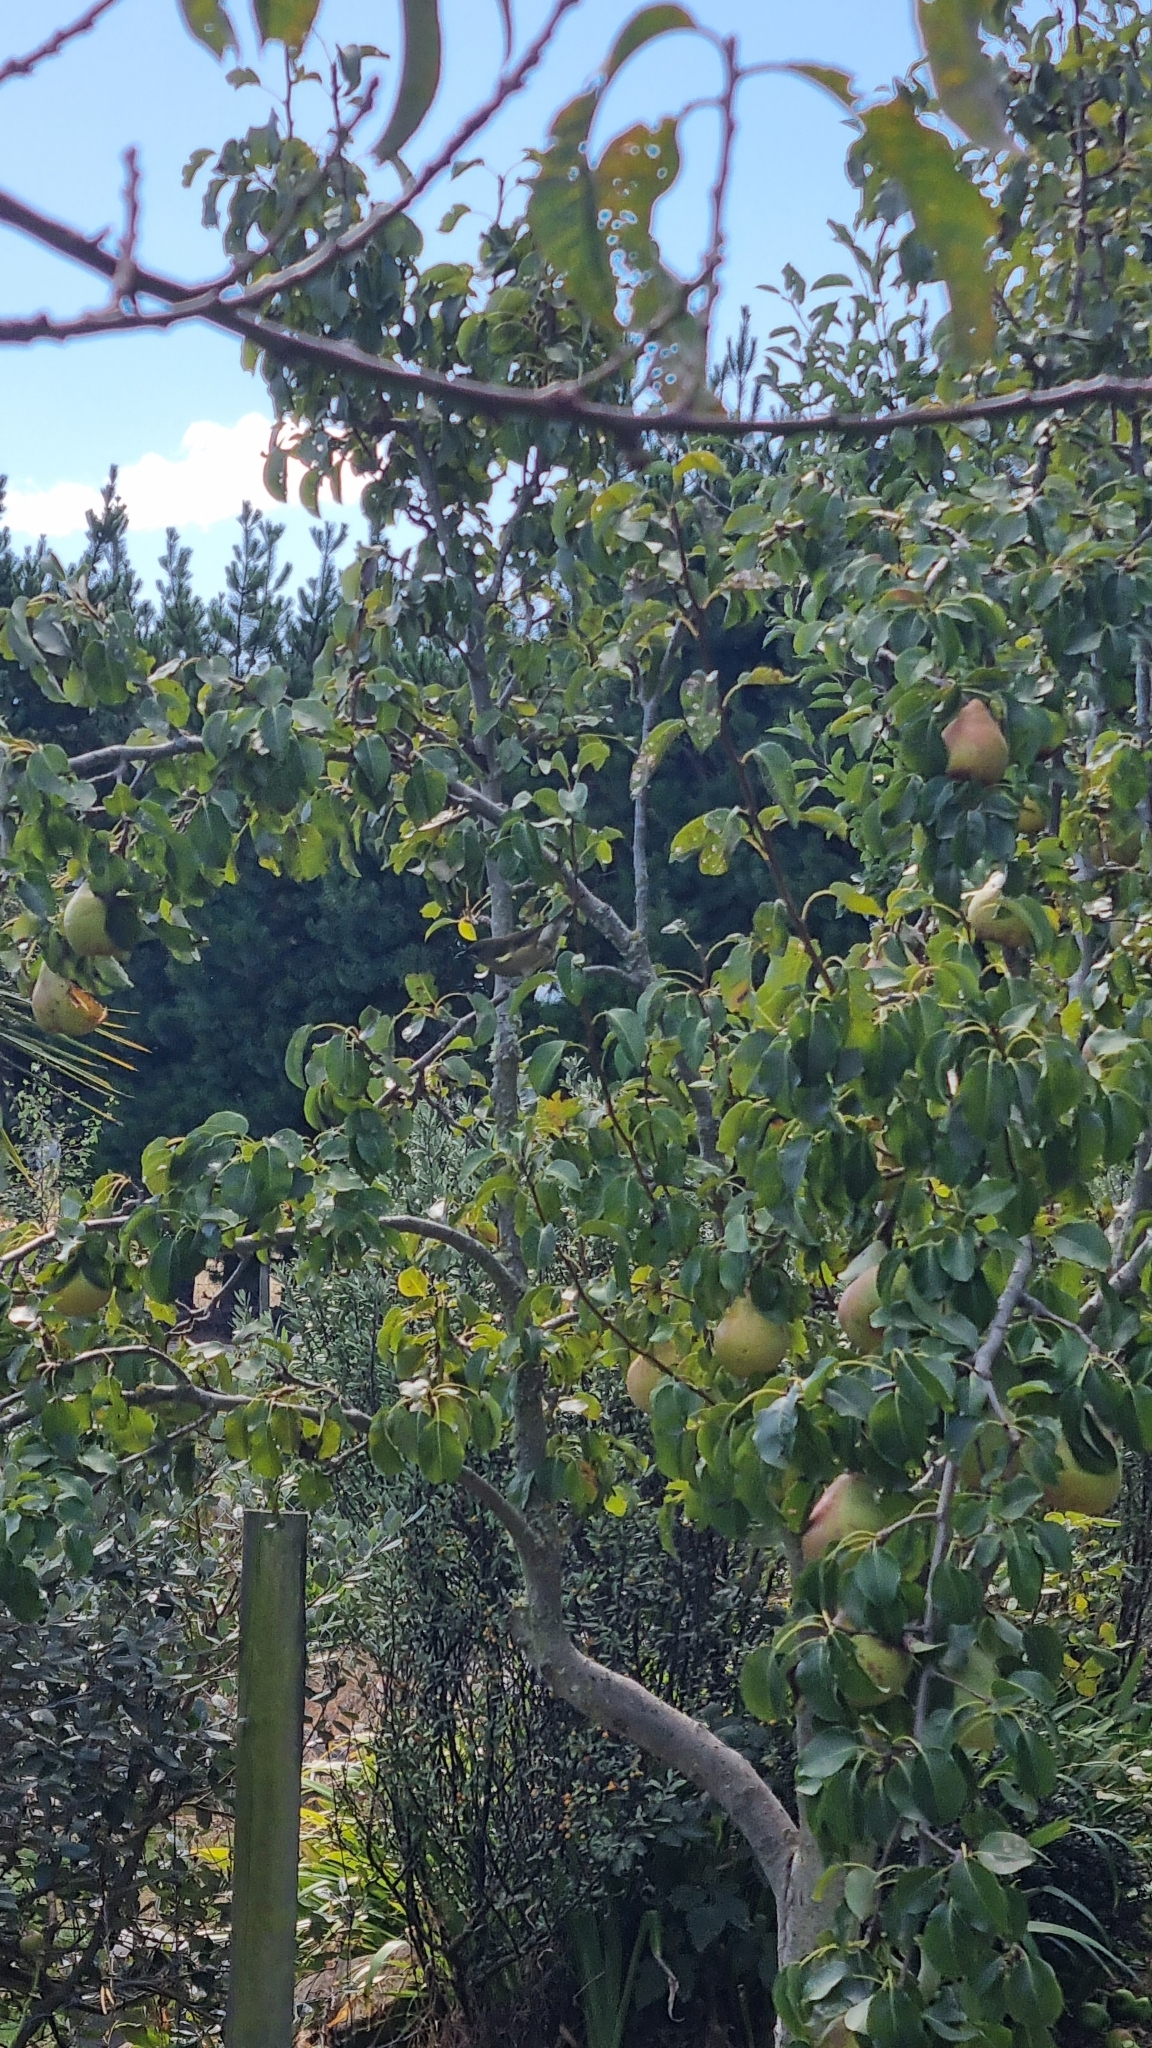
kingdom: Animalia
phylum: Chordata
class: Aves
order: Passeriformes
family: Meliphagidae
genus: Anthornis
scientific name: Anthornis melanura
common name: New zealand bellbird
